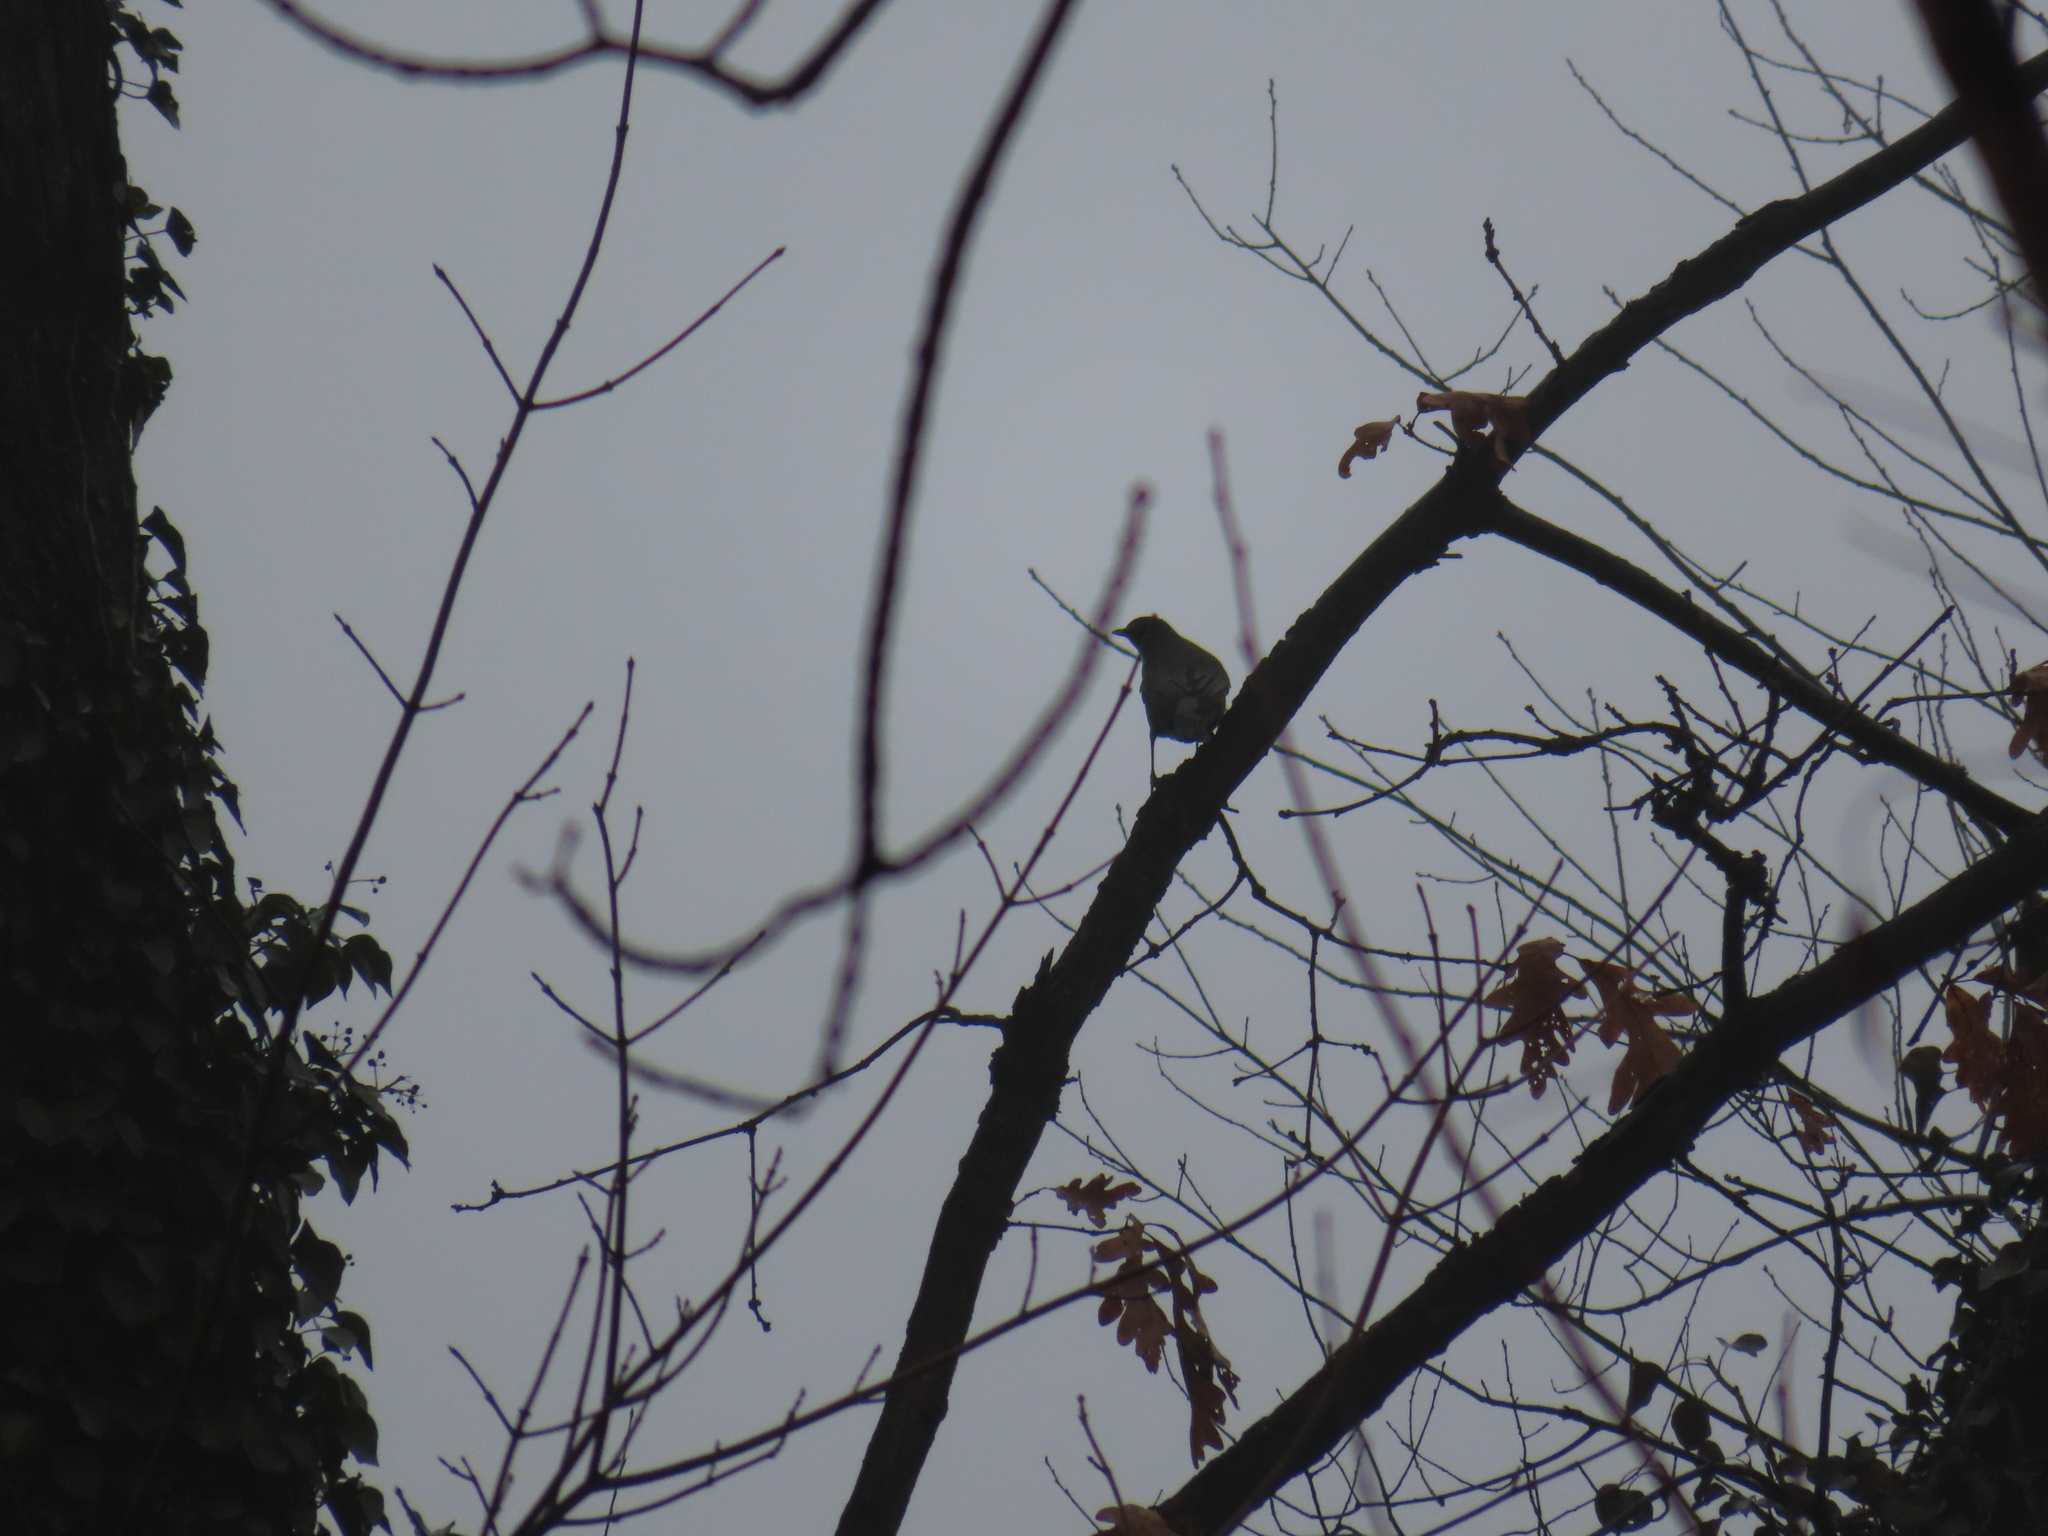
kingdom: Animalia
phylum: Chordata
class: Aves
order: Passeriformes
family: Turdidae
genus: Turdus
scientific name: Turdus migratorius
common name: American robin
